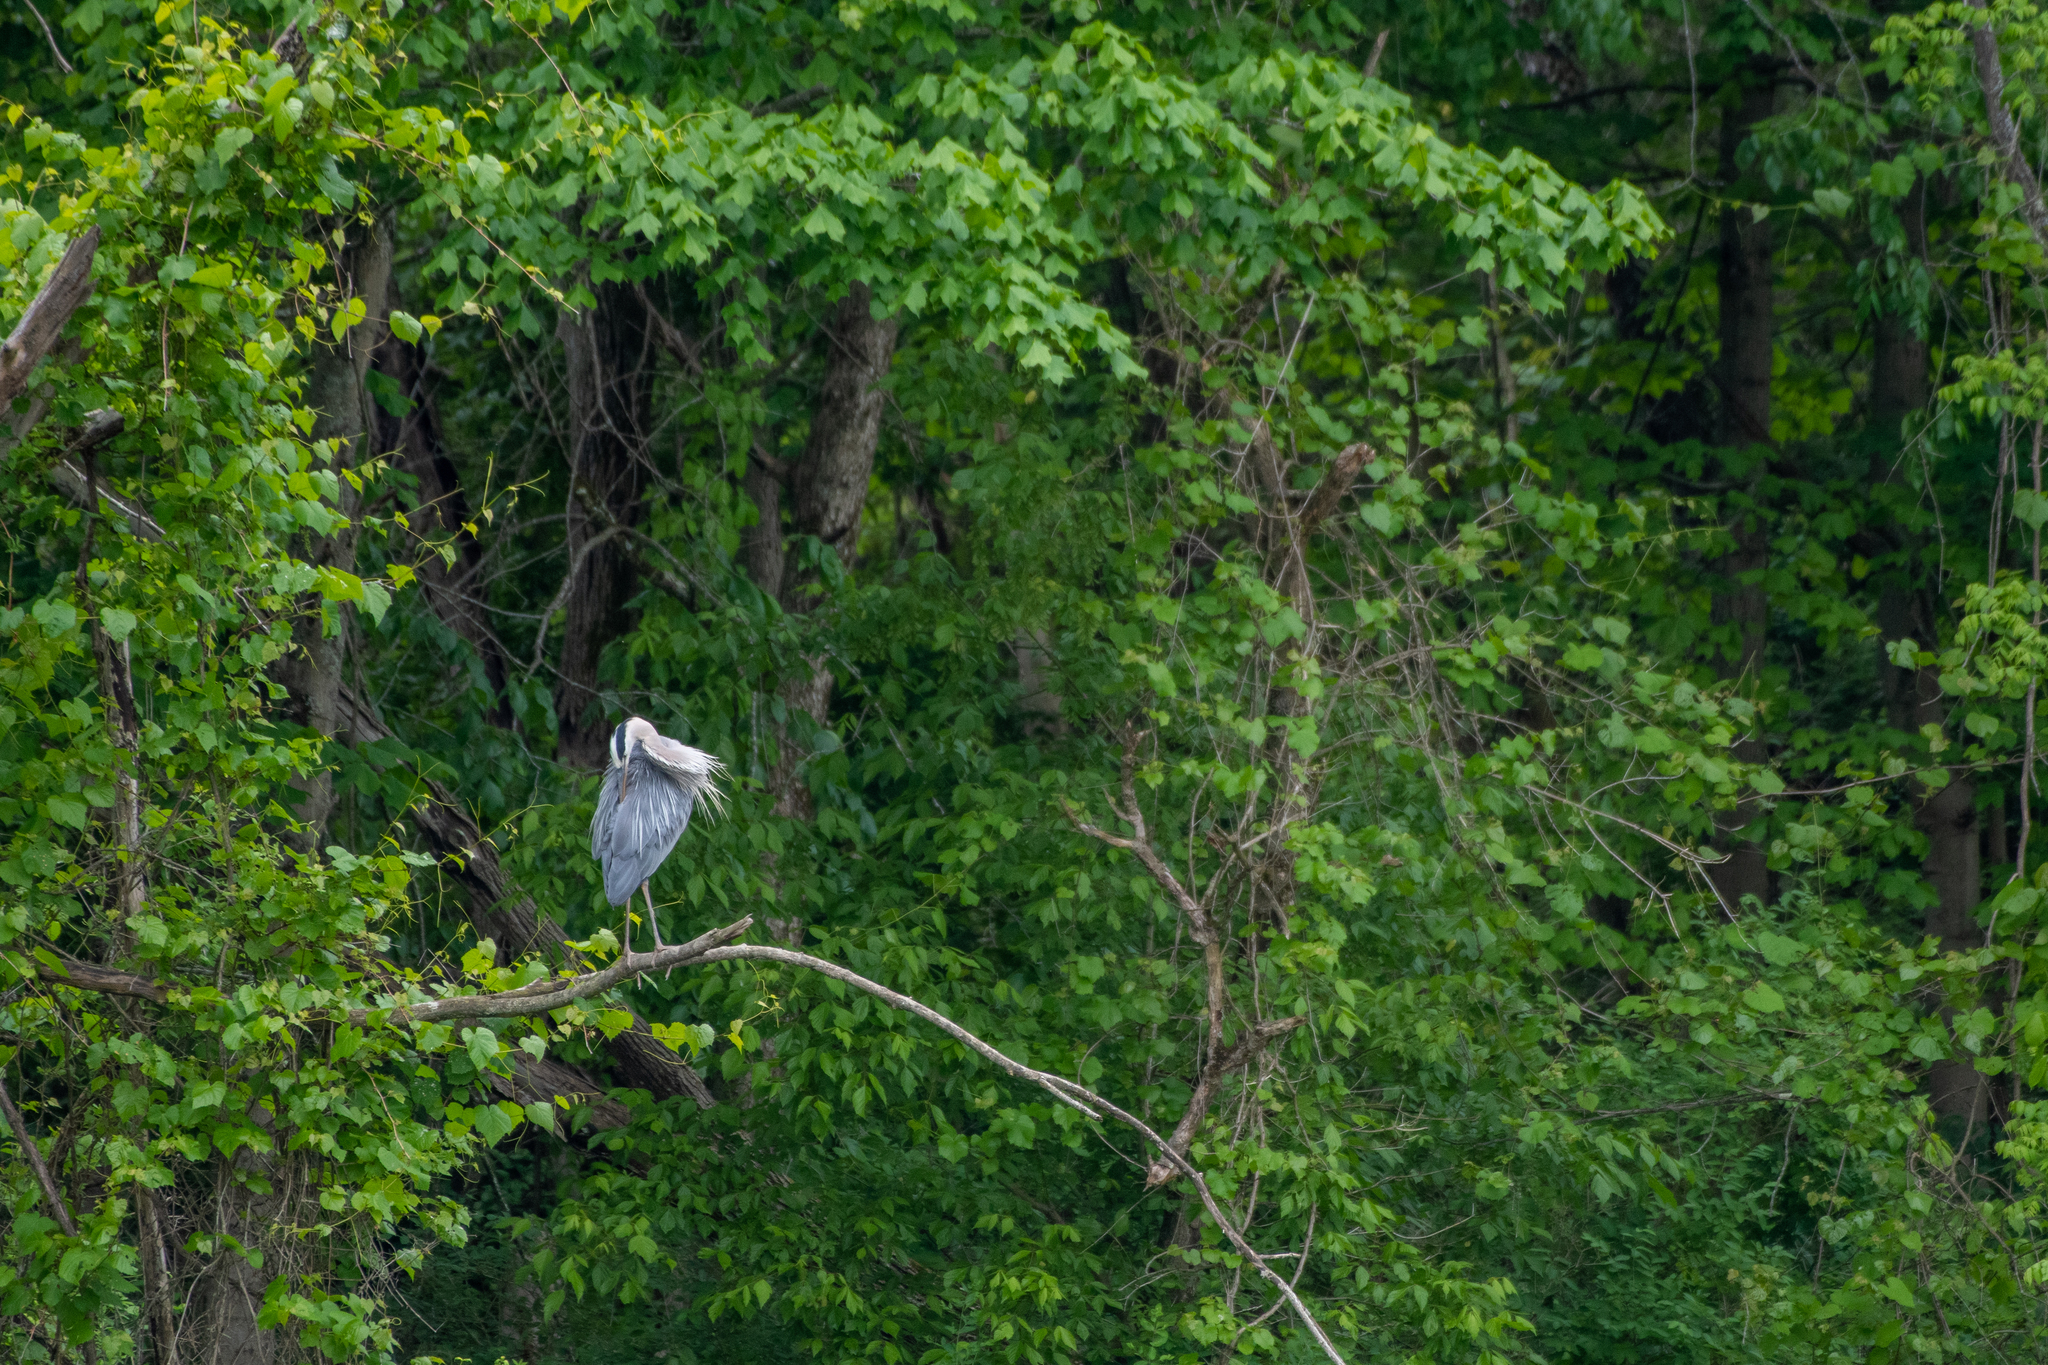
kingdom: Animalia
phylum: Chordata
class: Aves
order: Pelecaniformes
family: Ardeidae
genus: Ardea
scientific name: Ardea herodias
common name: Great blue heron
